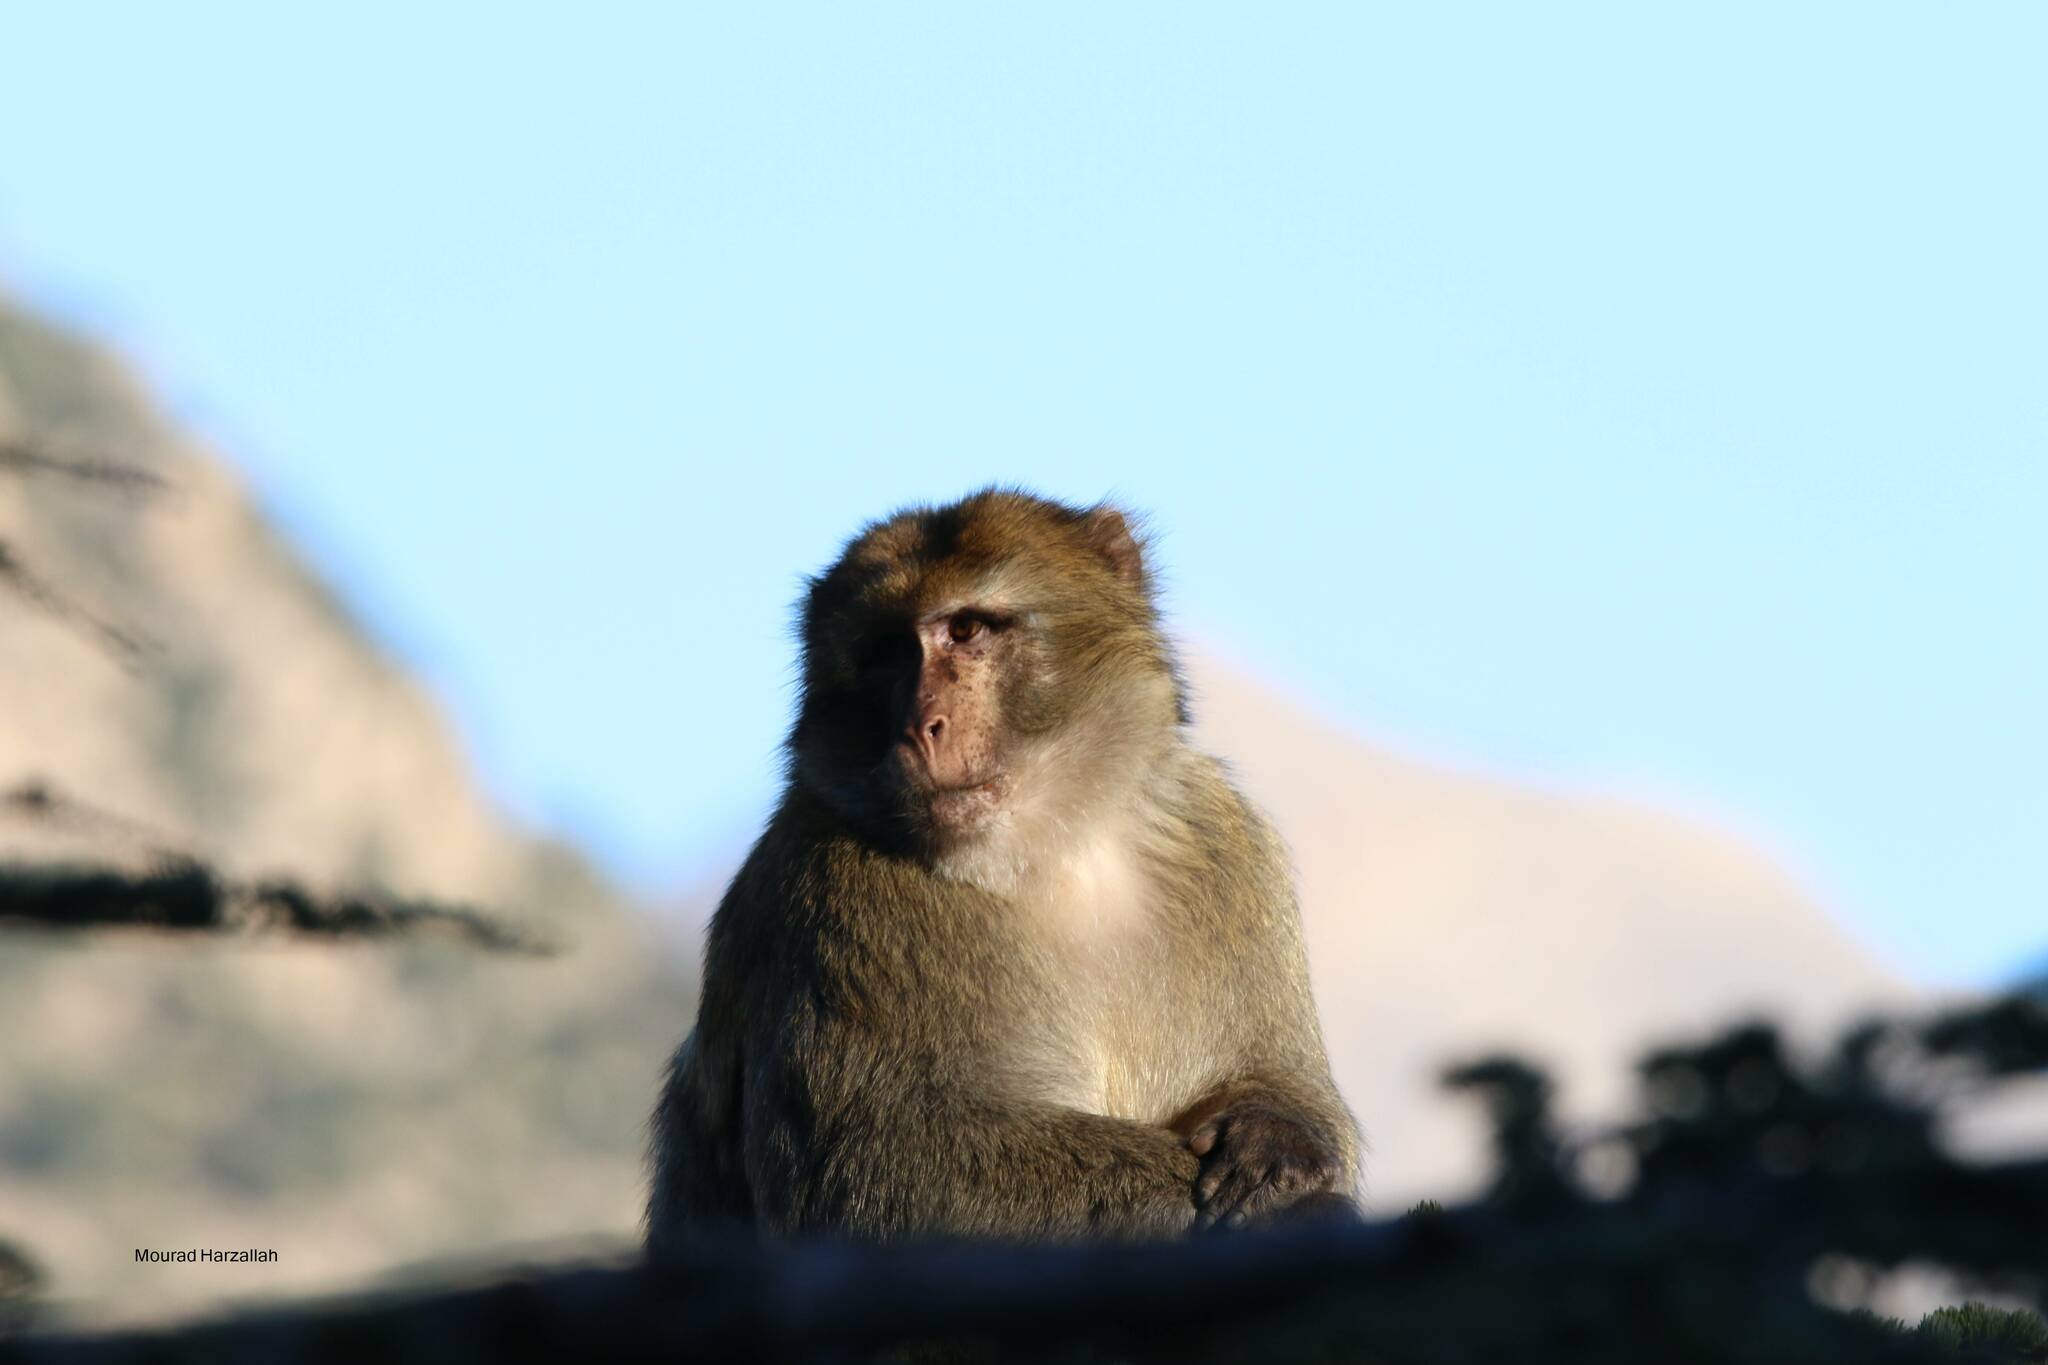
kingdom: Animalia
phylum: Chordata
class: Mammalia
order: Primates
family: Cercopithecidae
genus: Macaca
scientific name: Macaca sylvanus
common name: Barbary macaque
